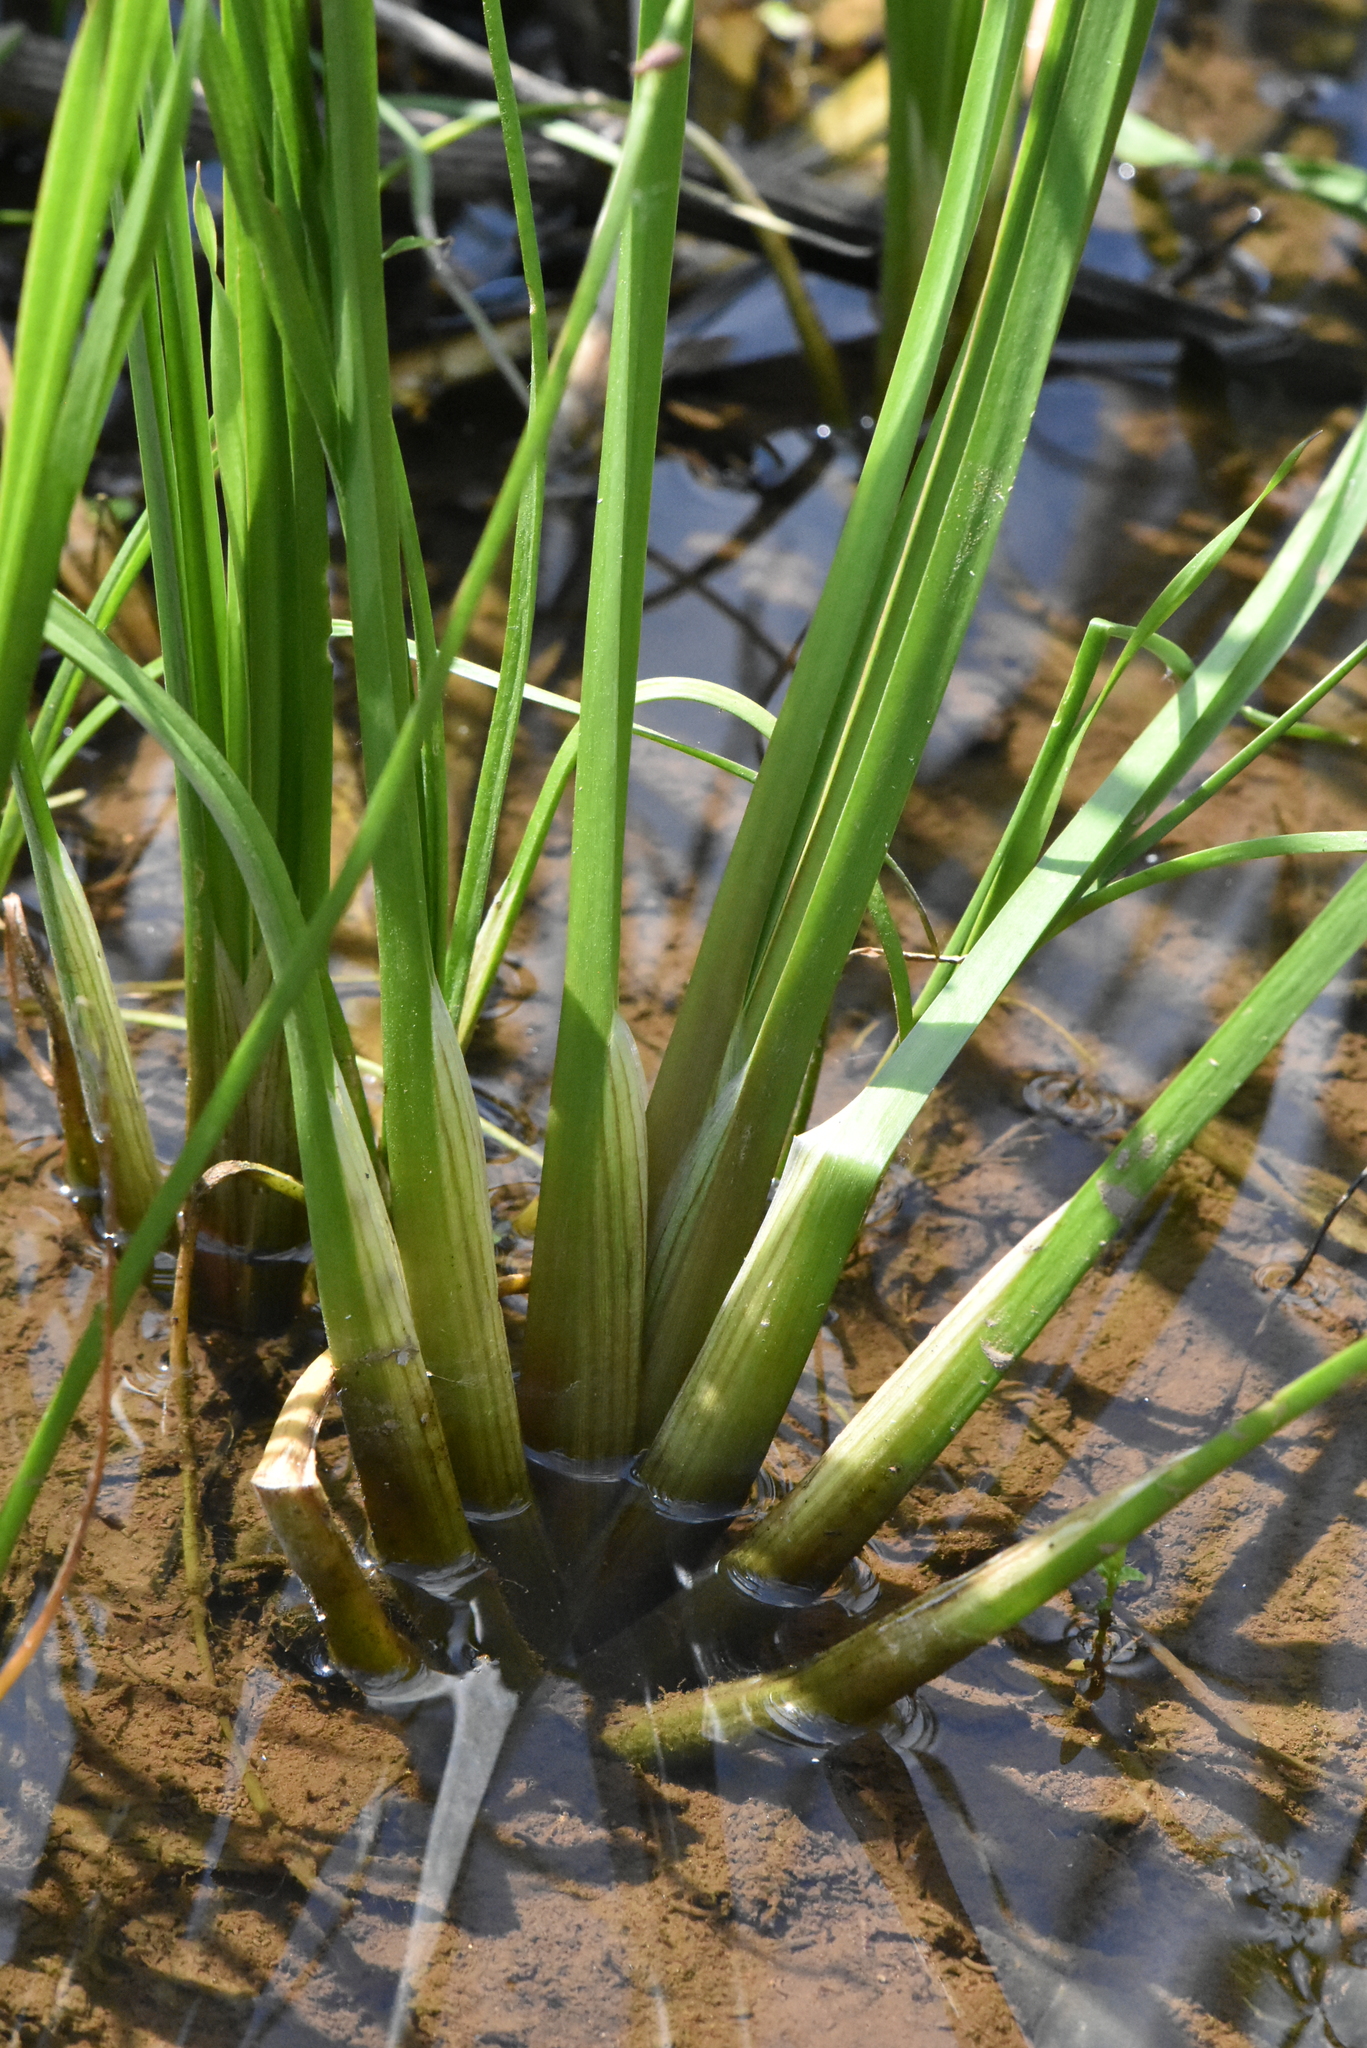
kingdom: Plantae
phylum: Tracheophyta
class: Liliopsida
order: Alismatales
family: Butomaceae
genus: Butomus
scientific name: Butomus umbellatus
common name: Flowering-rush
